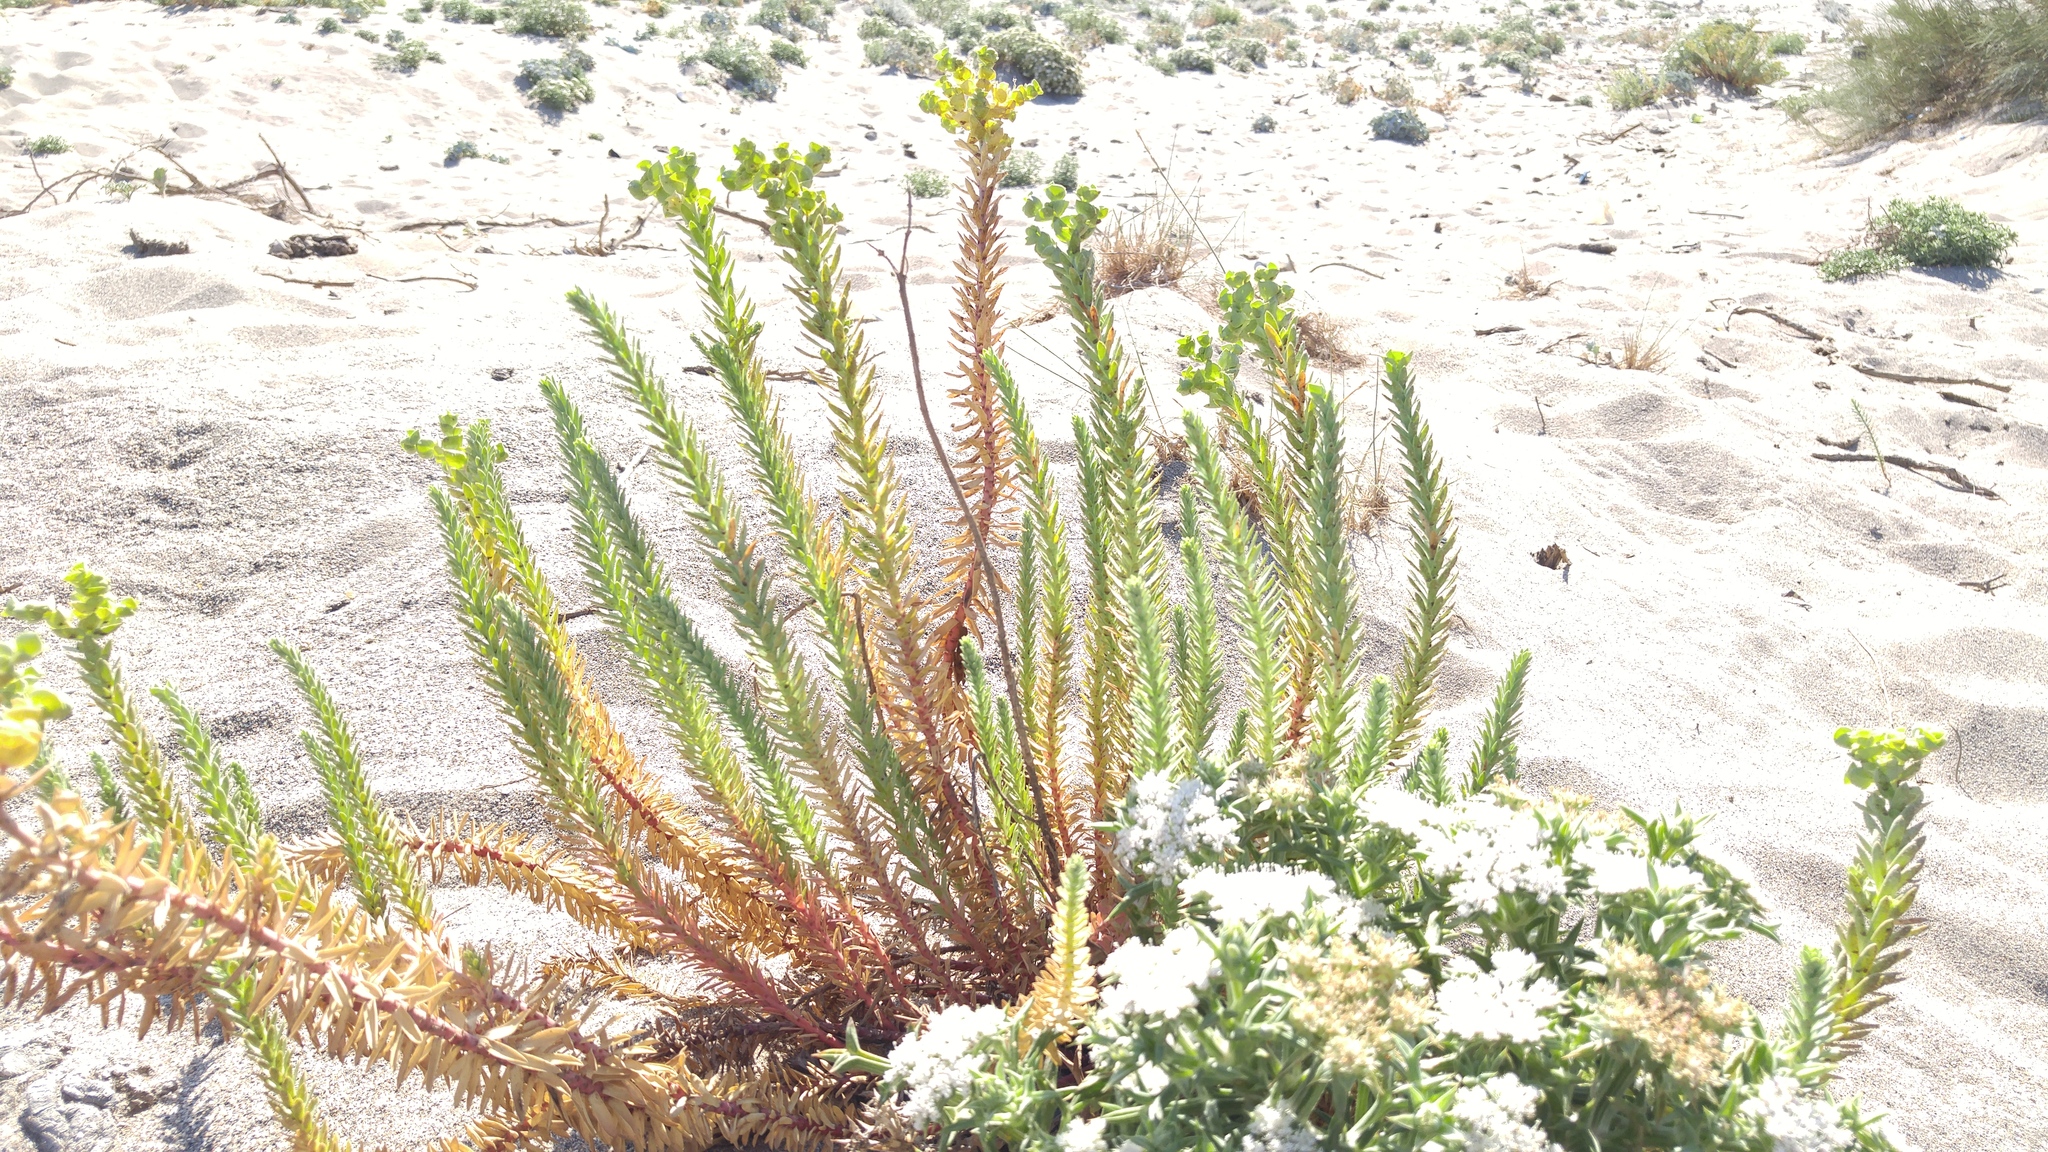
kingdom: Plantae
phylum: Tracheophyta
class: Magnoliopsida
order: Malpighiales
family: Euphorbiaceae
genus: Euphorbia
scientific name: Euphorbia paralias
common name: Sea spurge
